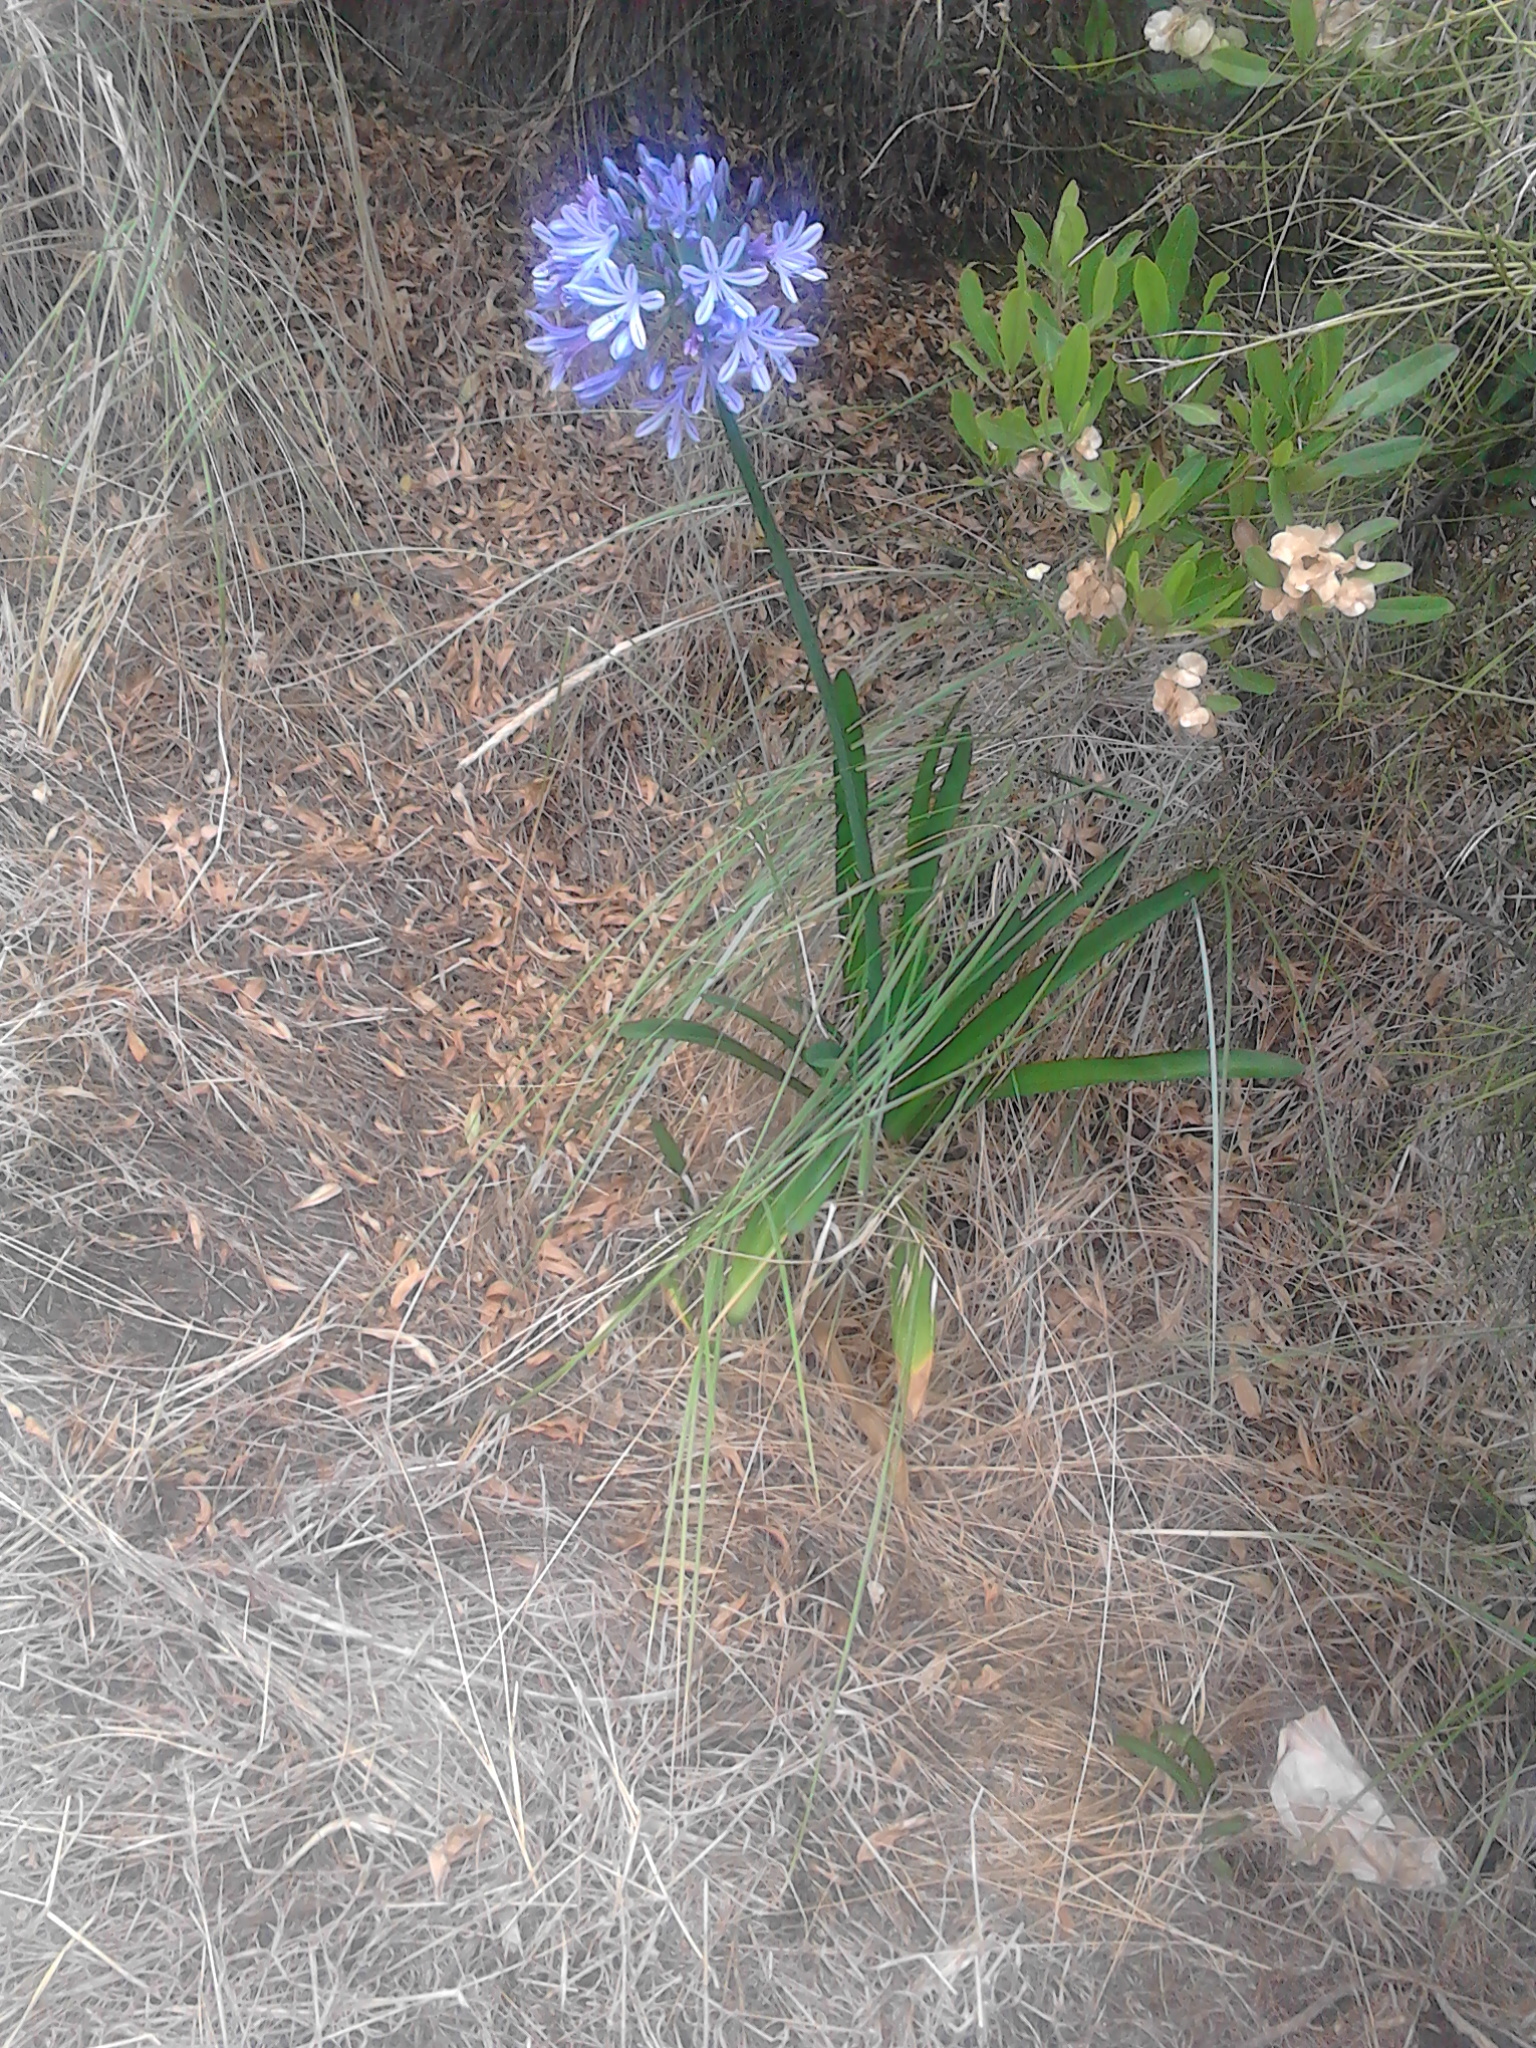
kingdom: Plantae
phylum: Tracheophyta
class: Liliopsida
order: Asparagales
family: Amaryllidaceae
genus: Agapanthus
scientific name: Agapanthus praecox
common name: African-lily
